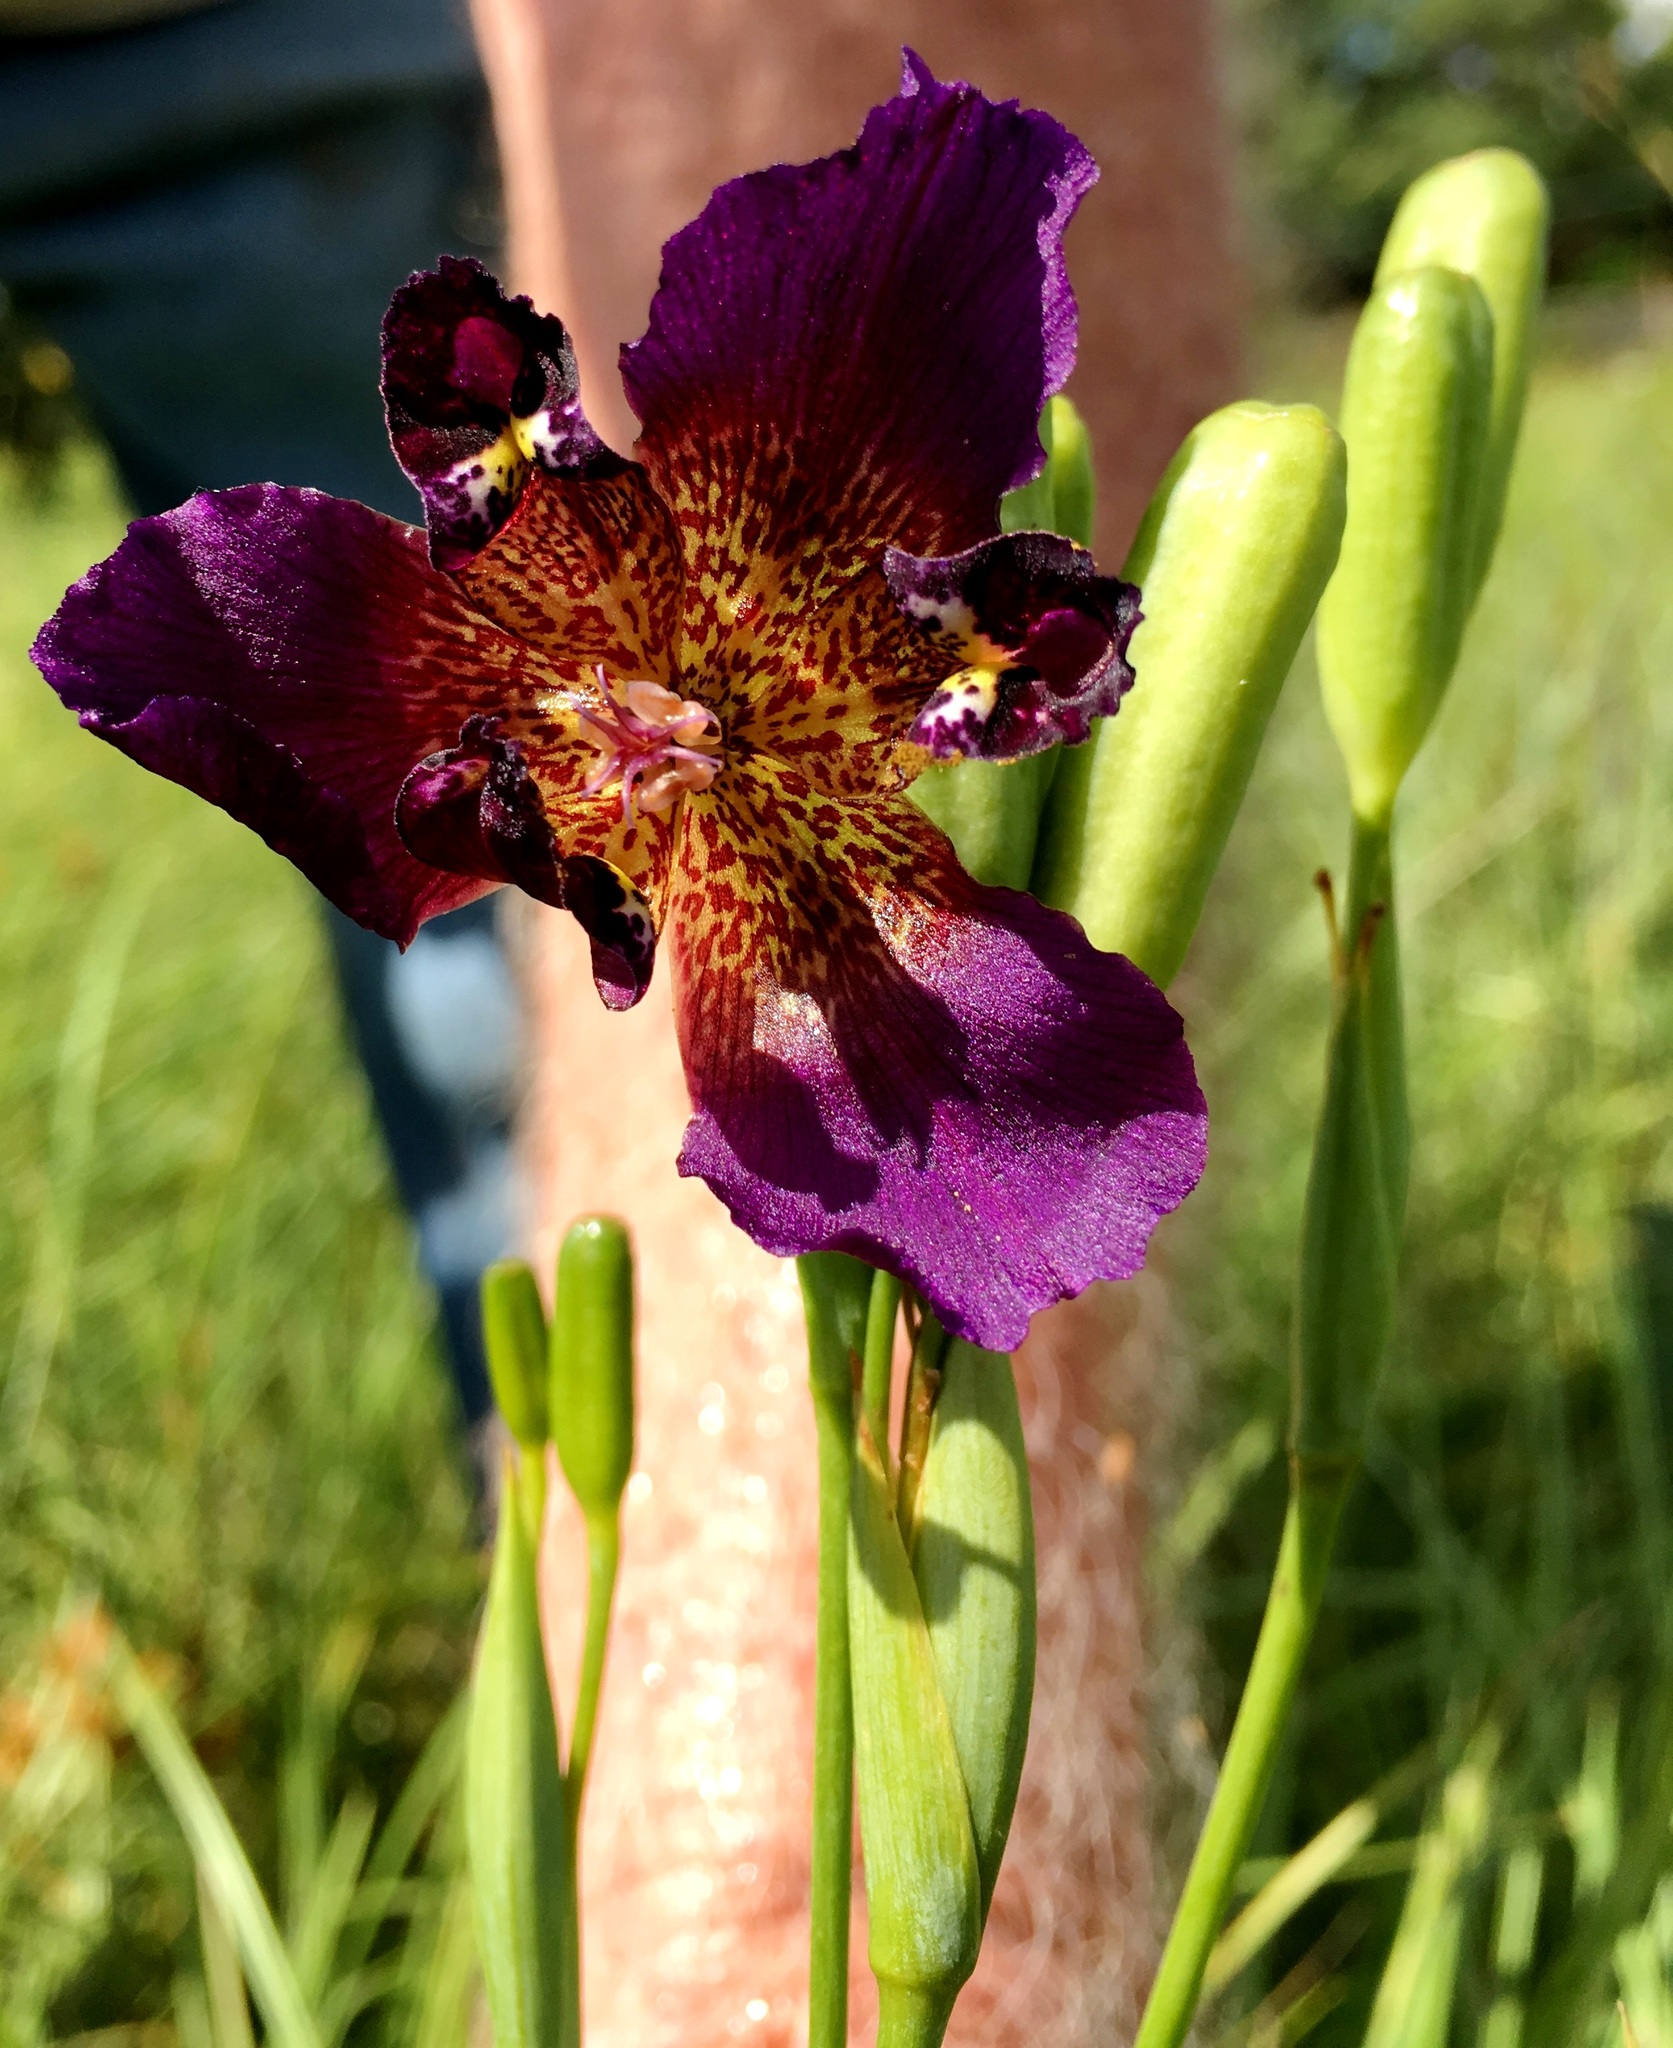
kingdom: Plantae
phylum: Tracheophyta
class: Liliopsida
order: Asparagales
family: Iridaceae
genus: Alophia
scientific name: Alophia drummondii
